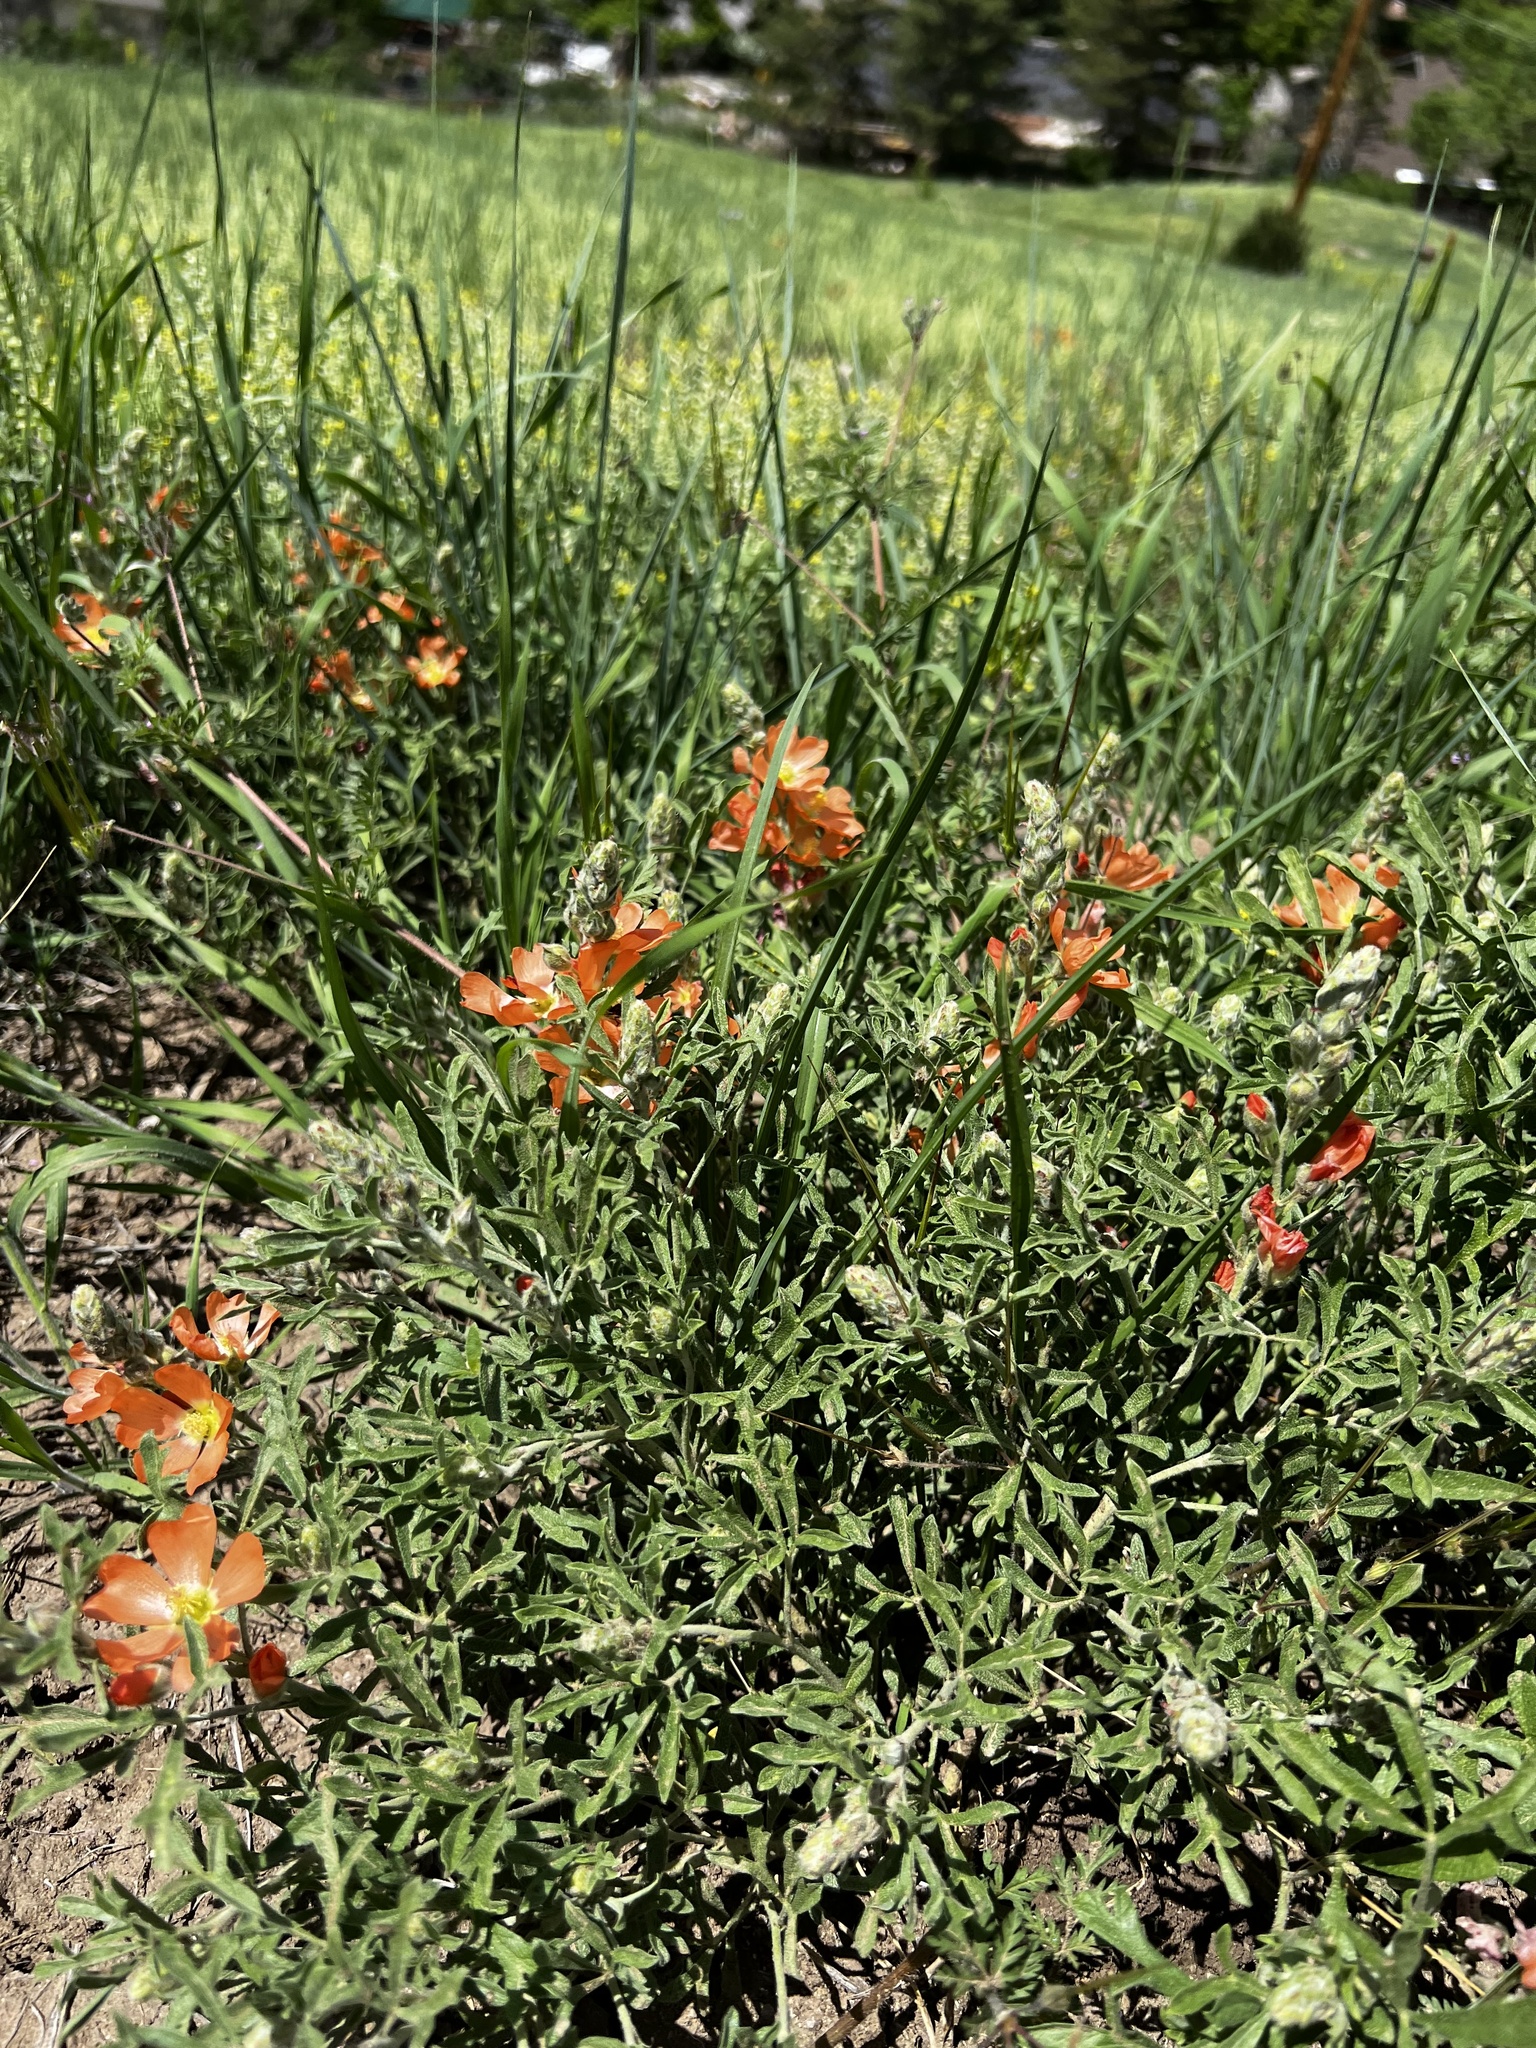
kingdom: Plantae
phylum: Tracheophyta
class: Magnoliopsida
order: Malvales
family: Malvaceae
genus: Sphaeralcea
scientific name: Sphaeralcea coccinea
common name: Moss-rose
